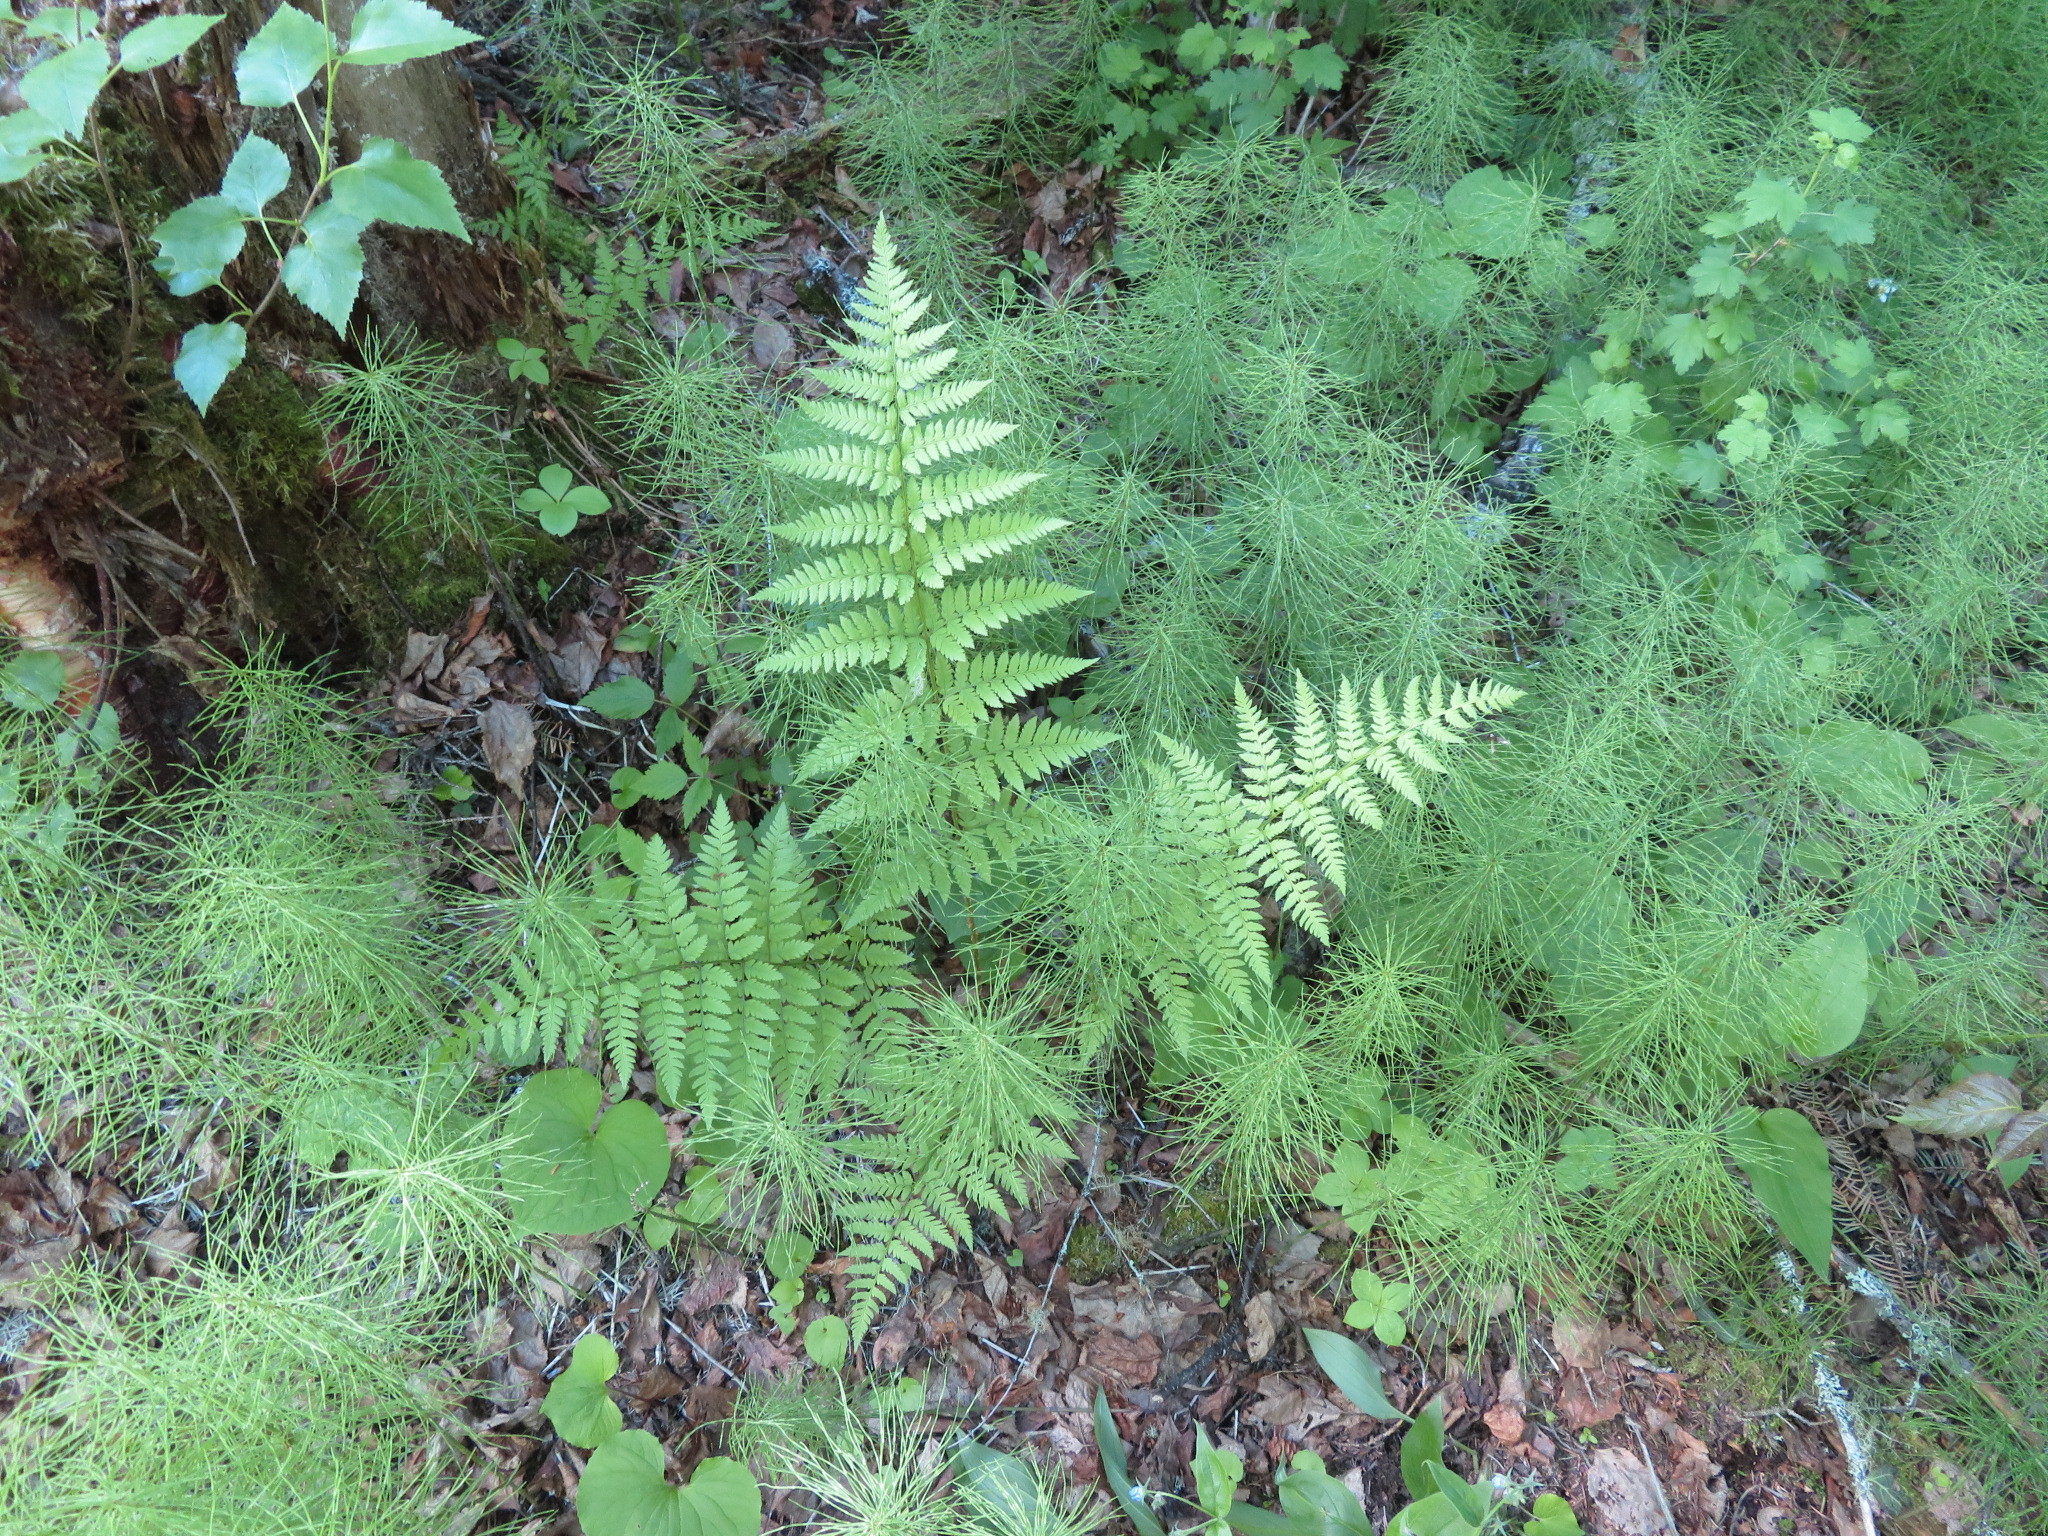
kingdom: Plantae
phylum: Tracheophyta
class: Polypodiopsida
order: Polypodiales
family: Dryopteridaceae
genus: Dryopteris
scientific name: Dryopteris carthusiana
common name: Narrow buckler-fern
